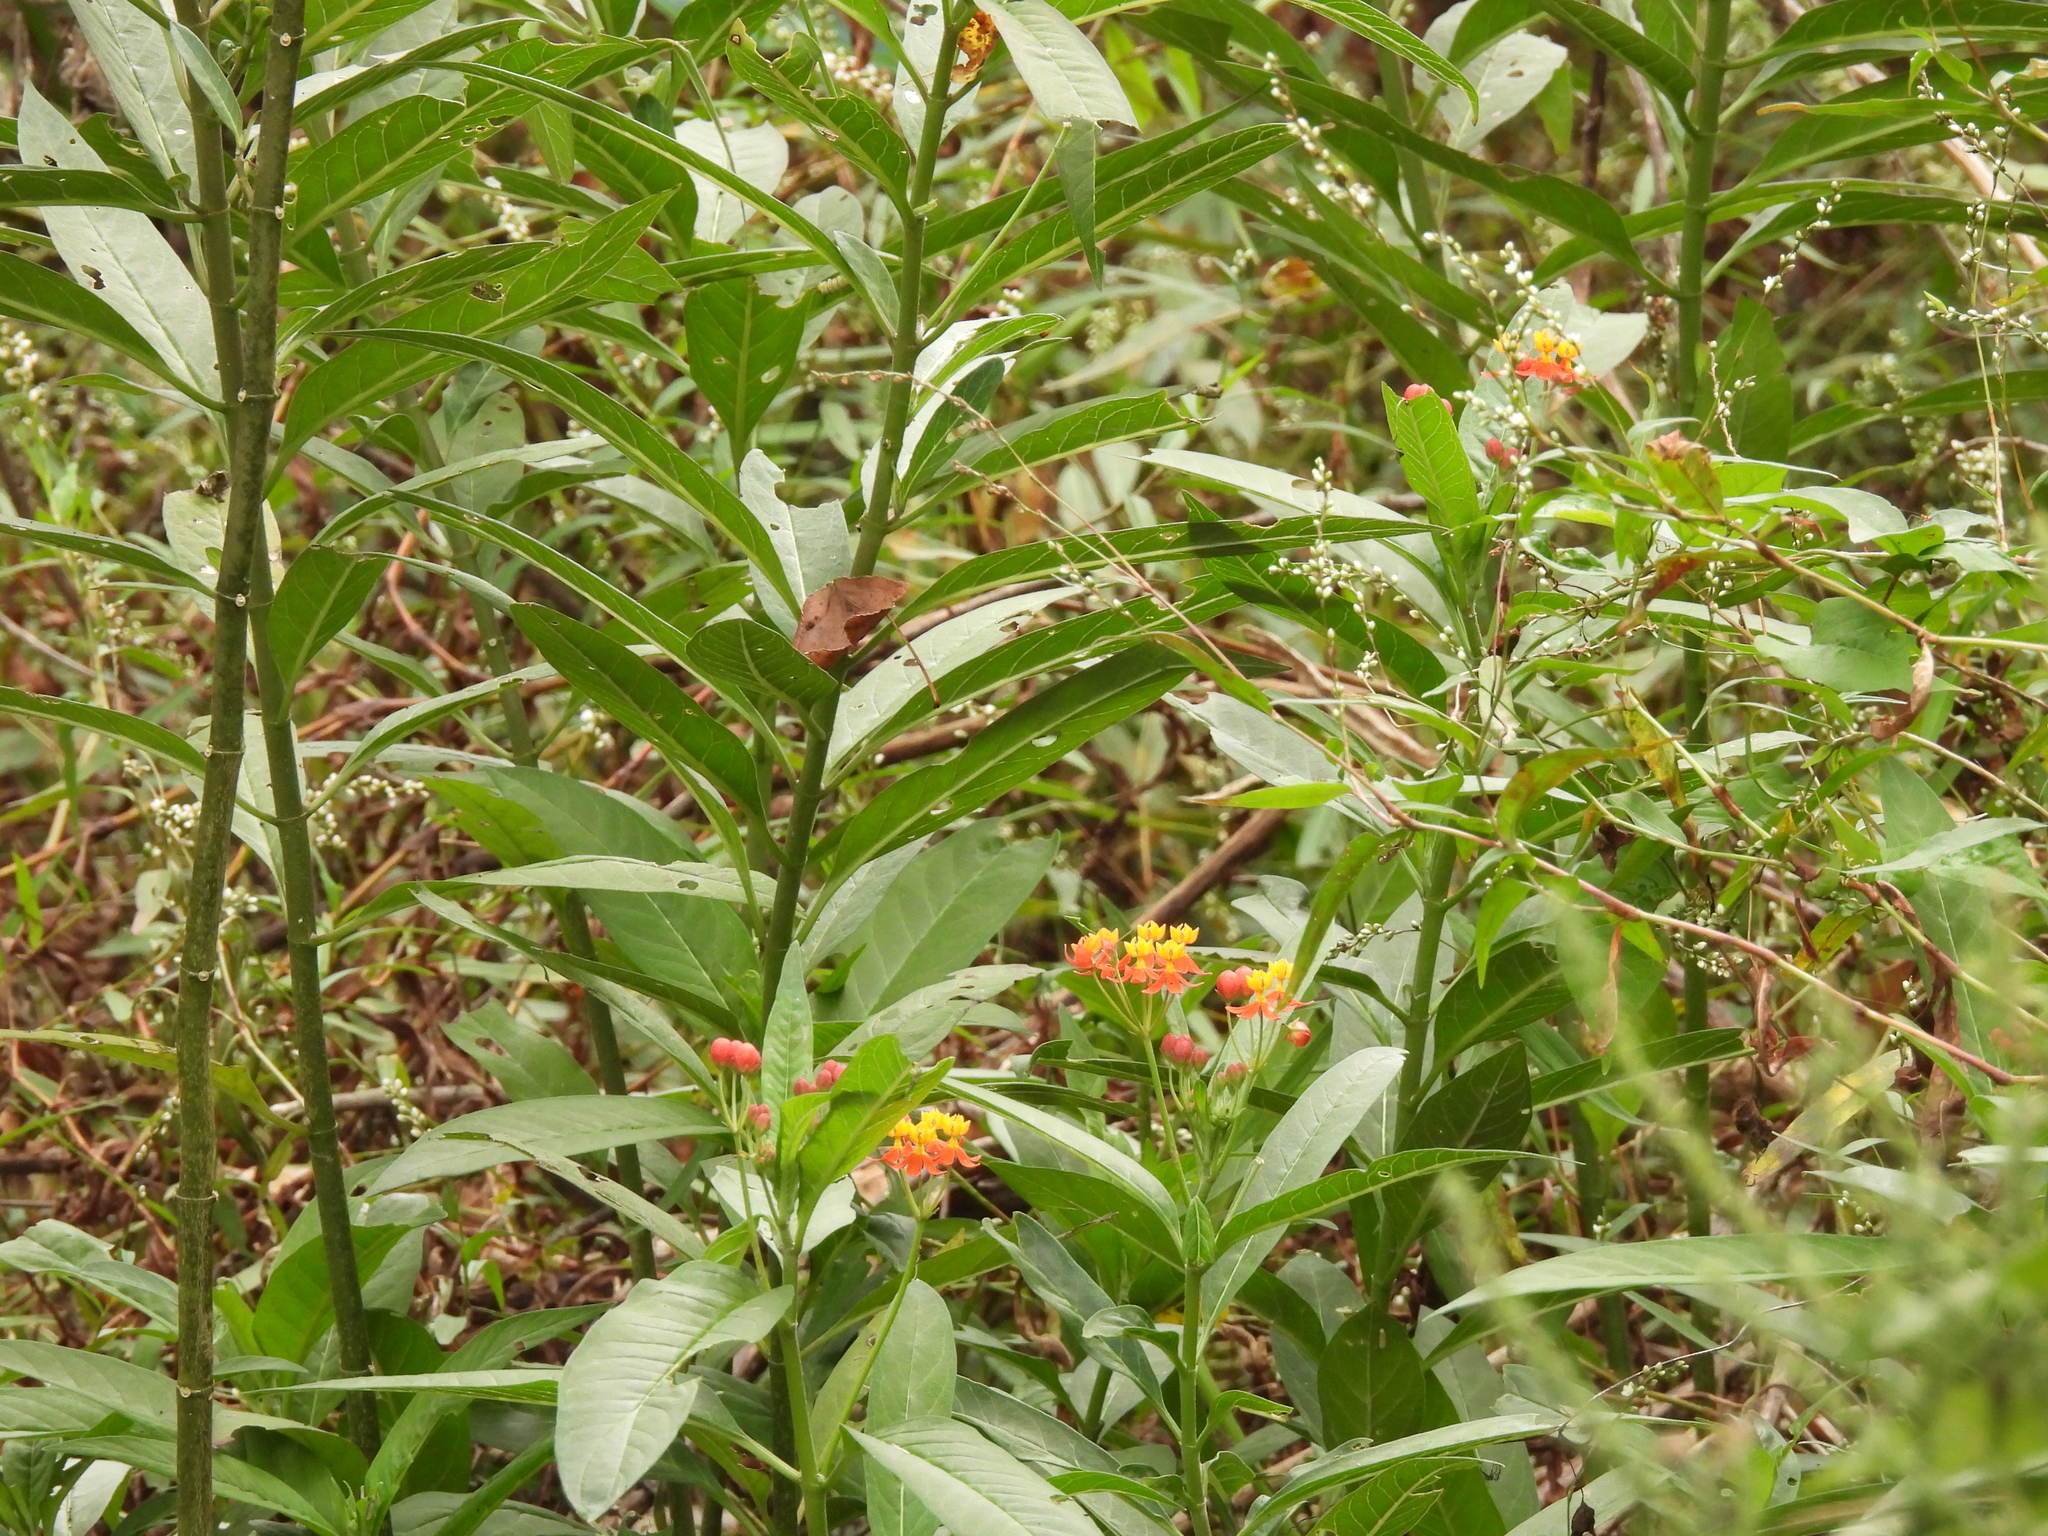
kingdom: Plantae
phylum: Tracheophyta
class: Magnoliopsida
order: Gentianales
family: Apocynaceae
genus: Asclepias
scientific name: Asclepias curassavica
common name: Bloodflower
